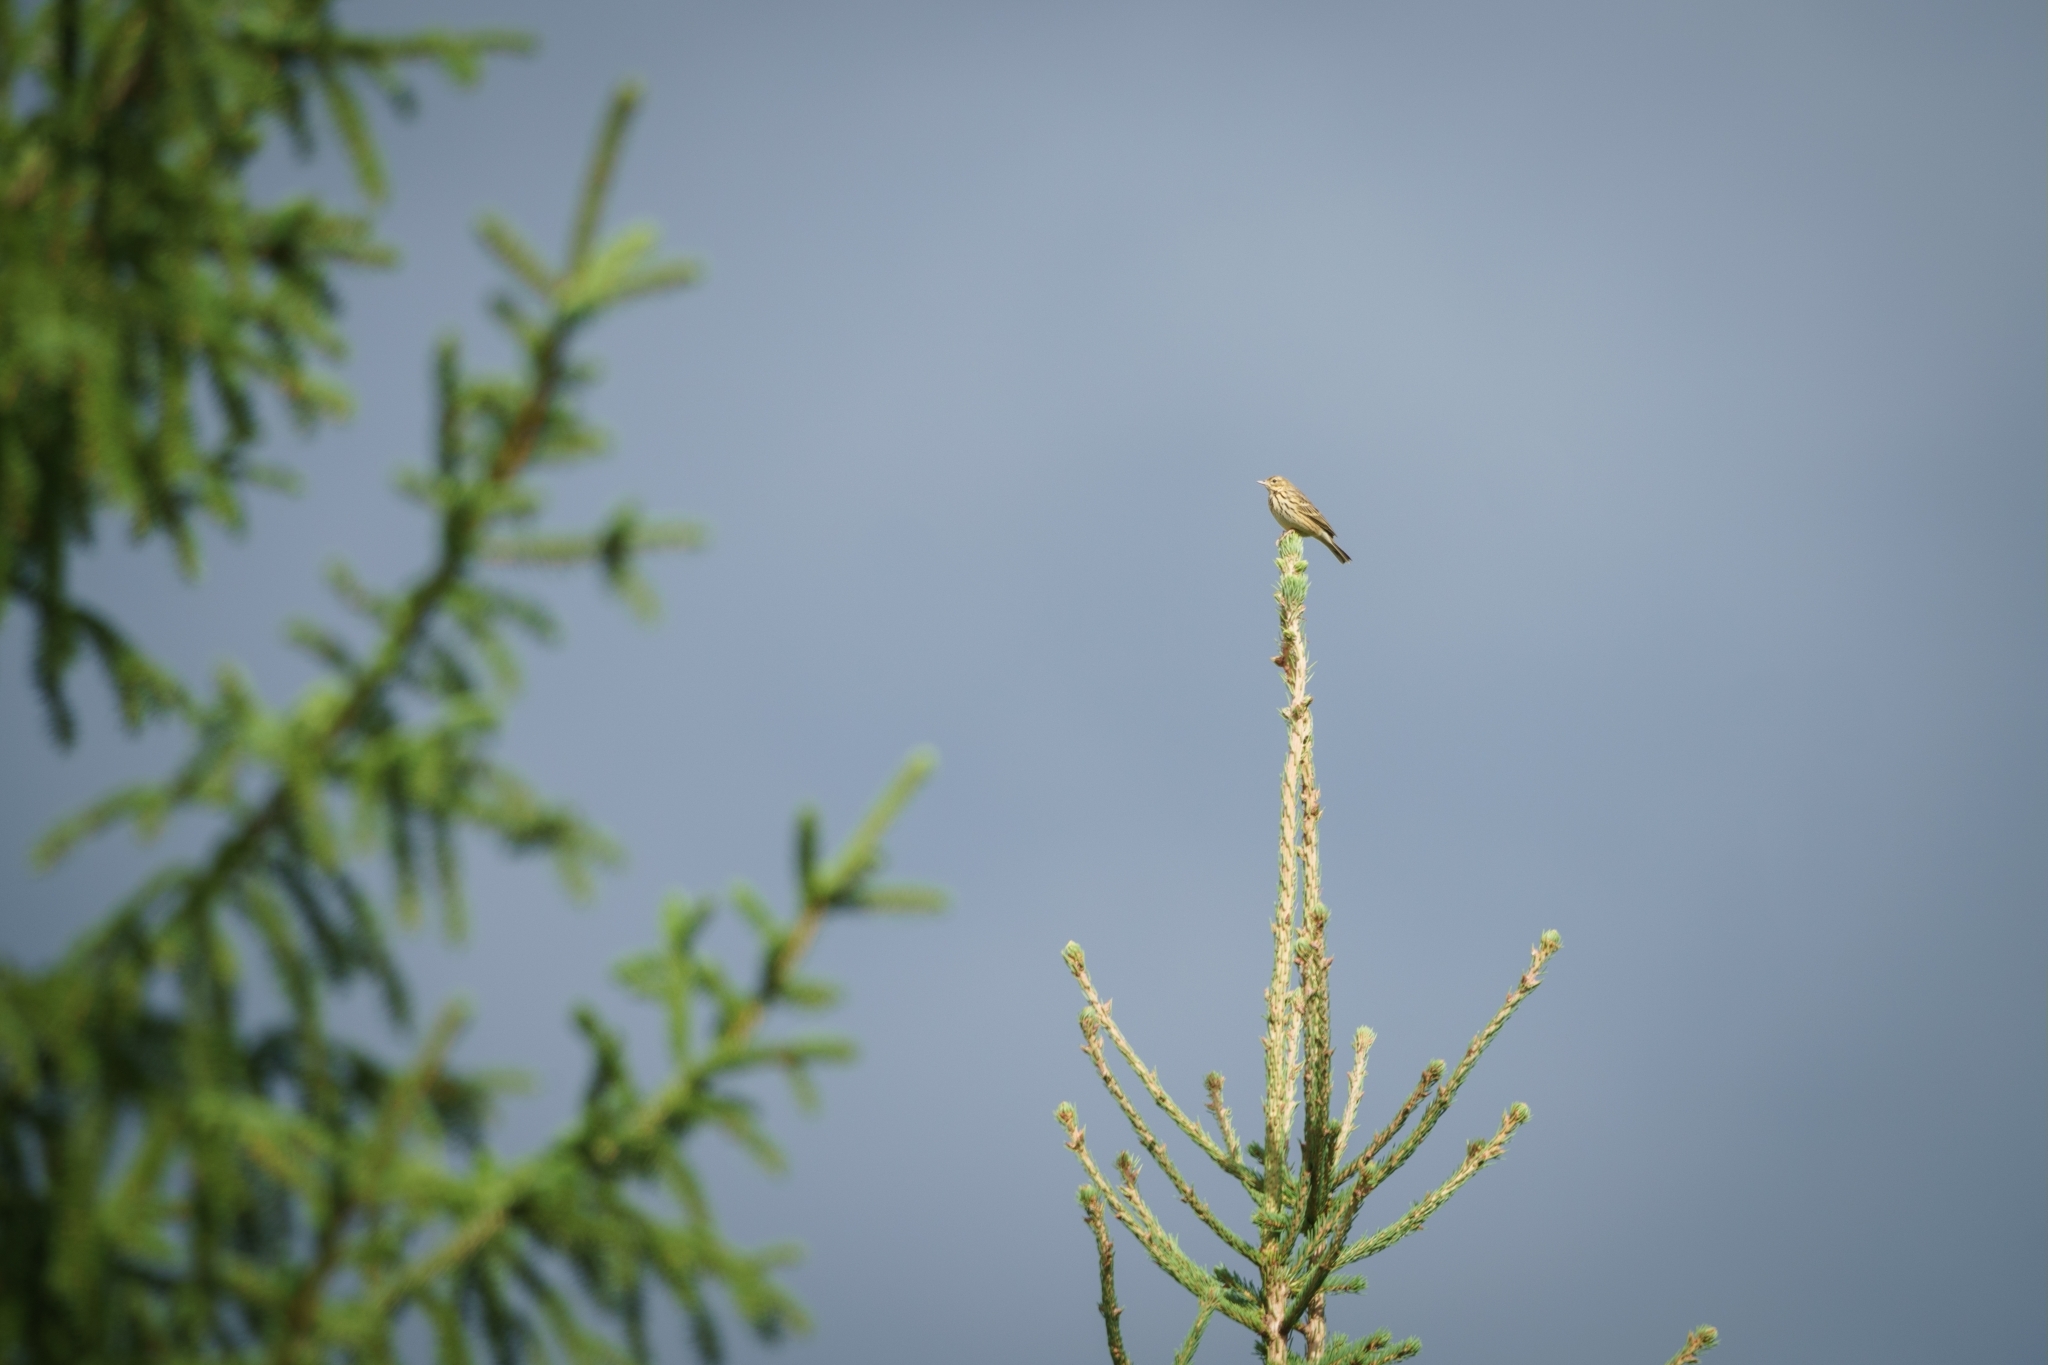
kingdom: Animalia
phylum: Chordata
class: Aves
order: Passeriformes
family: Motacillidae
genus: Anthus
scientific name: Anthus trivialis
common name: Tree pipit
